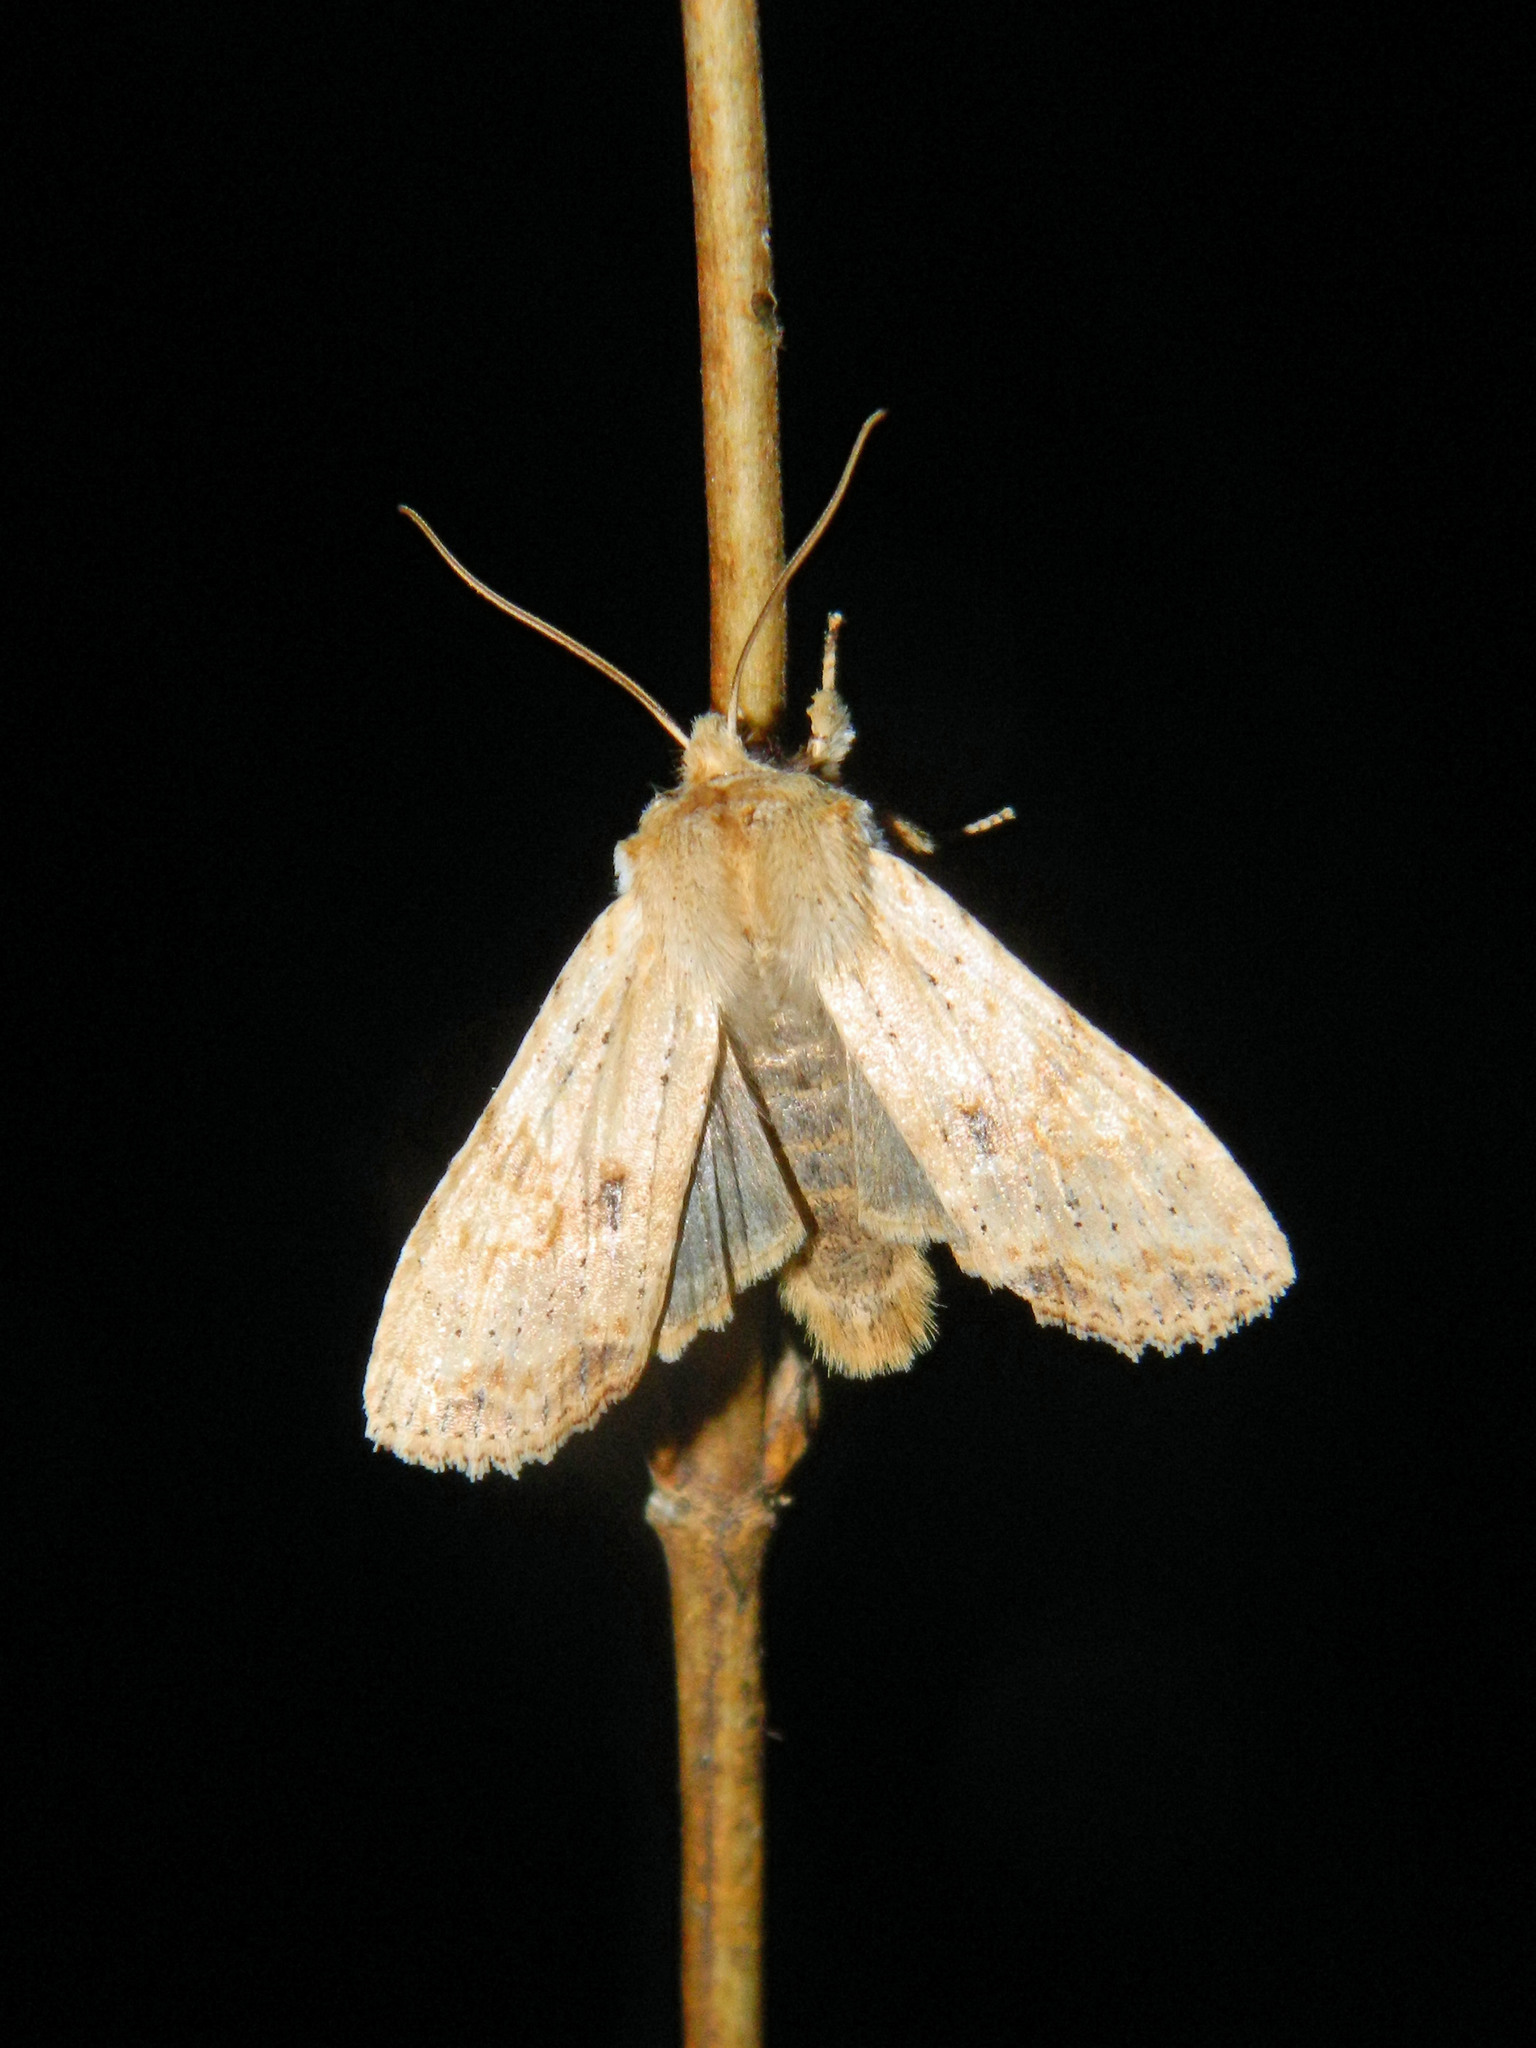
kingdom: Animalia
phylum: Arthropoda
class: Insecta
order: Lepidoptera
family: Noctuidae
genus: Lithophane
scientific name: Lithophane innominata
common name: Nameless pinion moth
